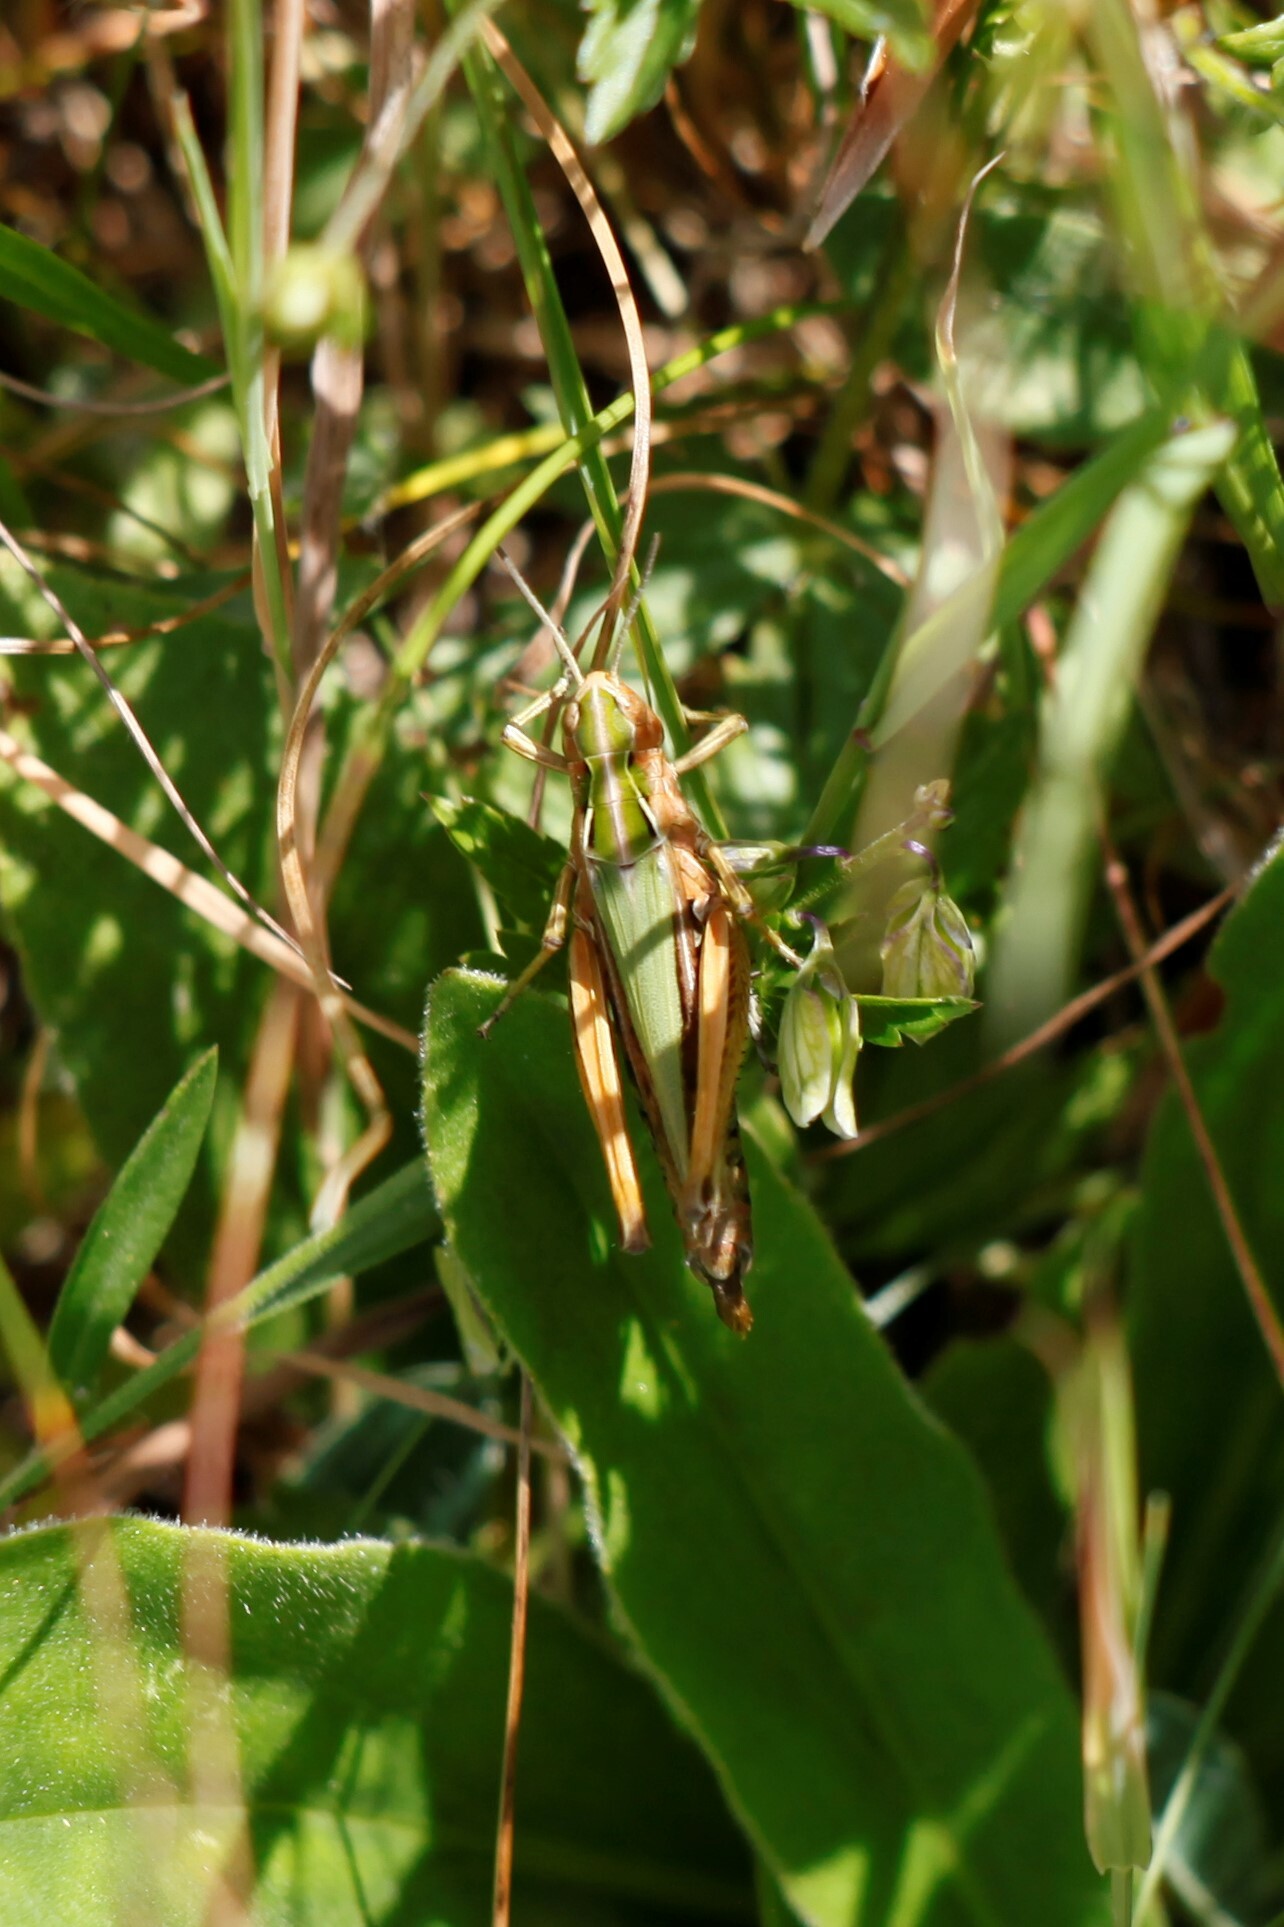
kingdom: Animalia
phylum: Arthropoda
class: Insecta
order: Orthoptera
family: Acrididae
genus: Omocestus
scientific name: Omocestus viridulus
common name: Common green grasshopper
